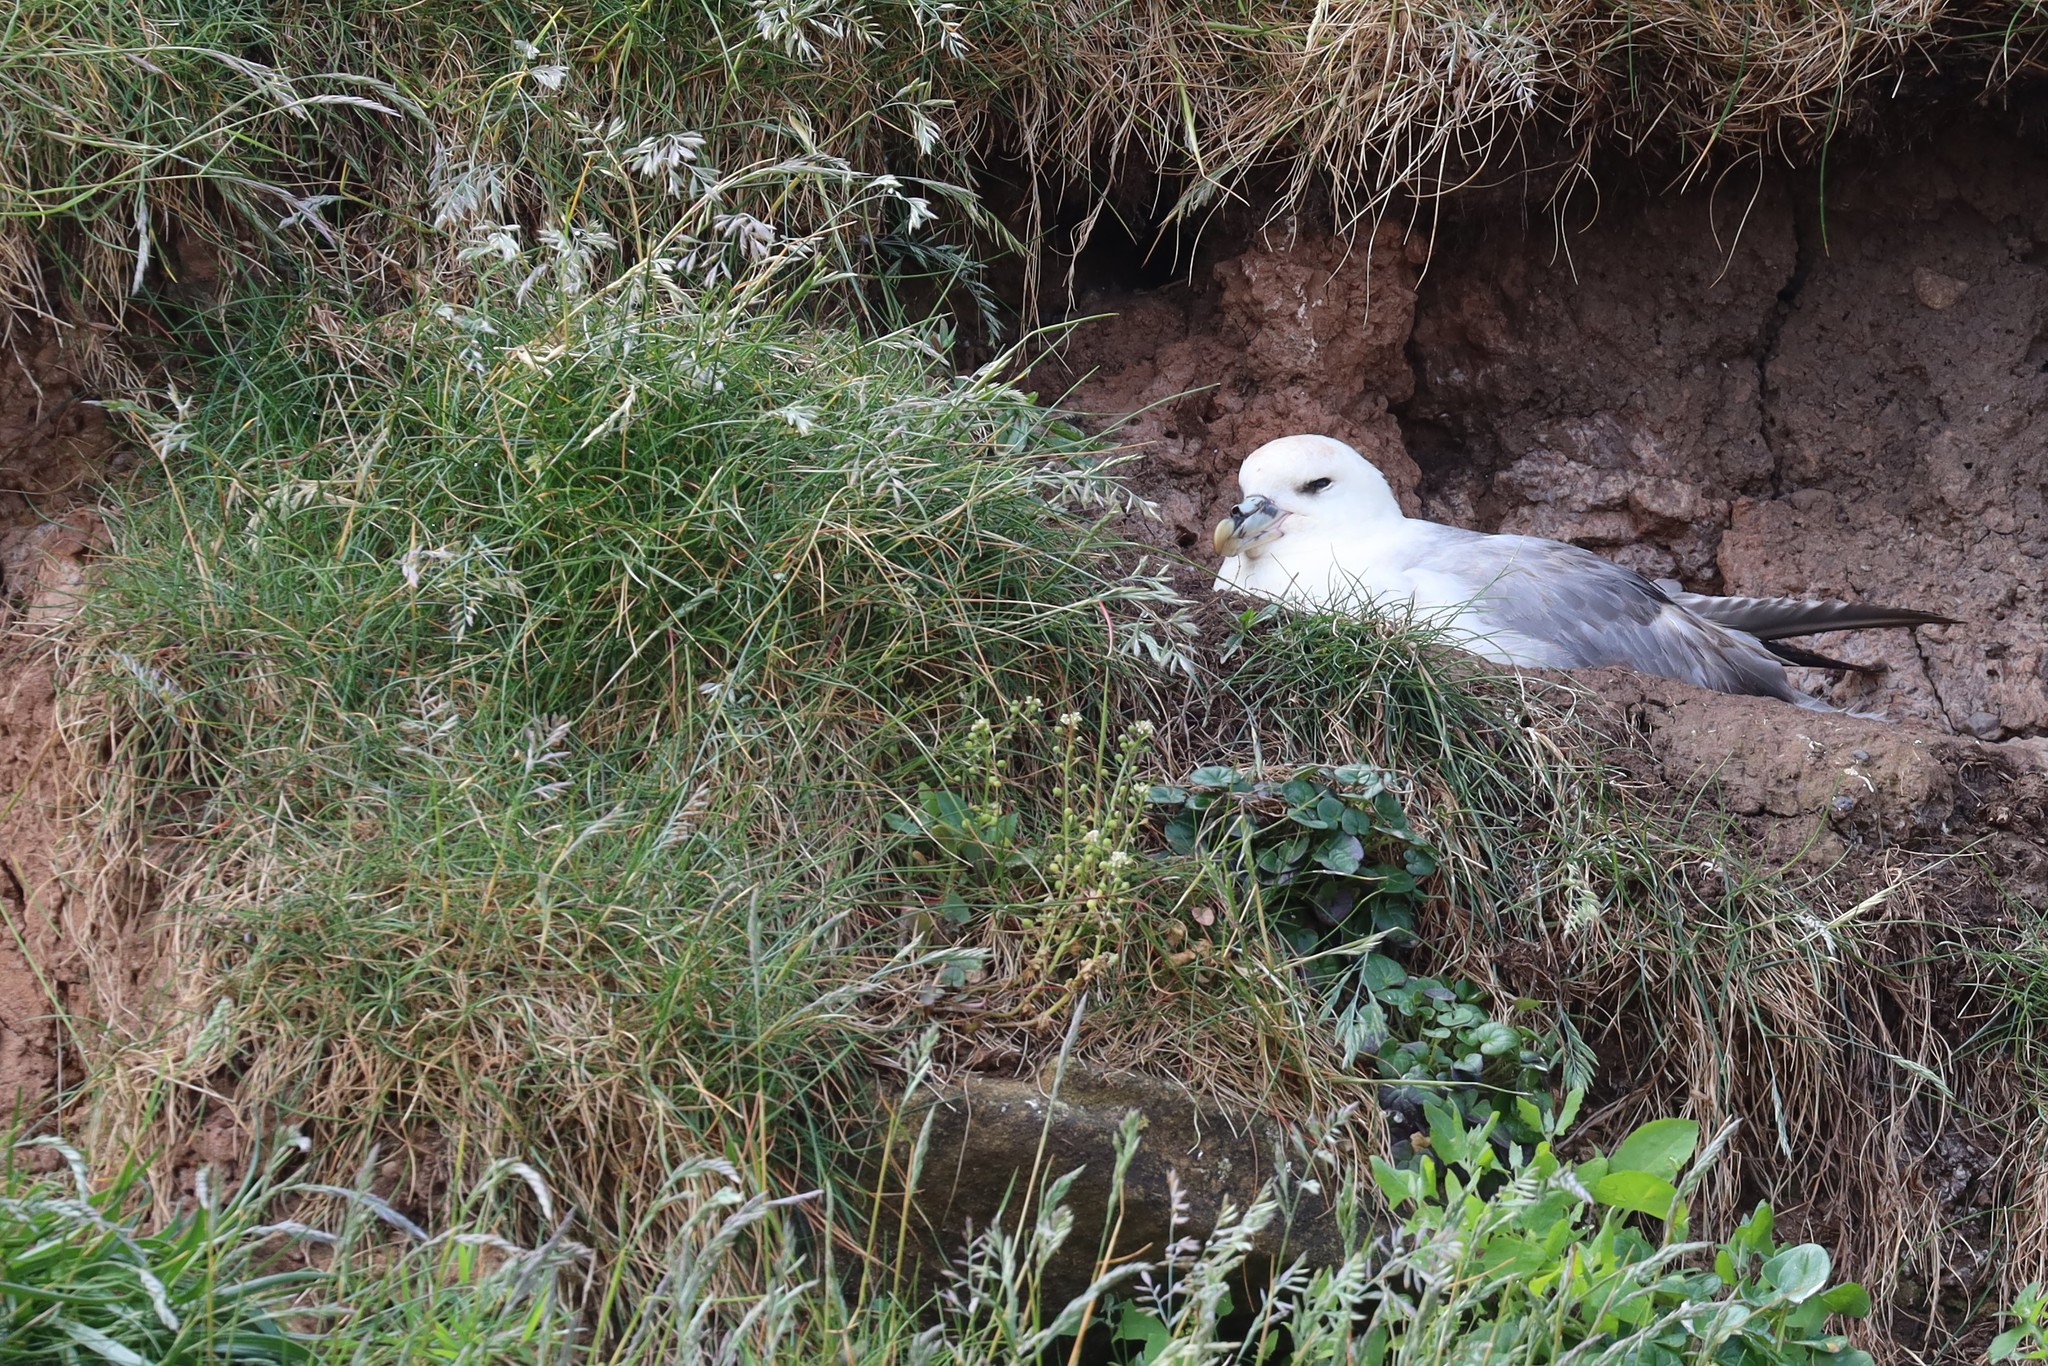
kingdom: Animalia
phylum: Chordata
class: Aves
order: Procellariiformes
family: Procellariidae
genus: Fulmarus
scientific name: Fulmarus glacialis
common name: Northern fulmar
